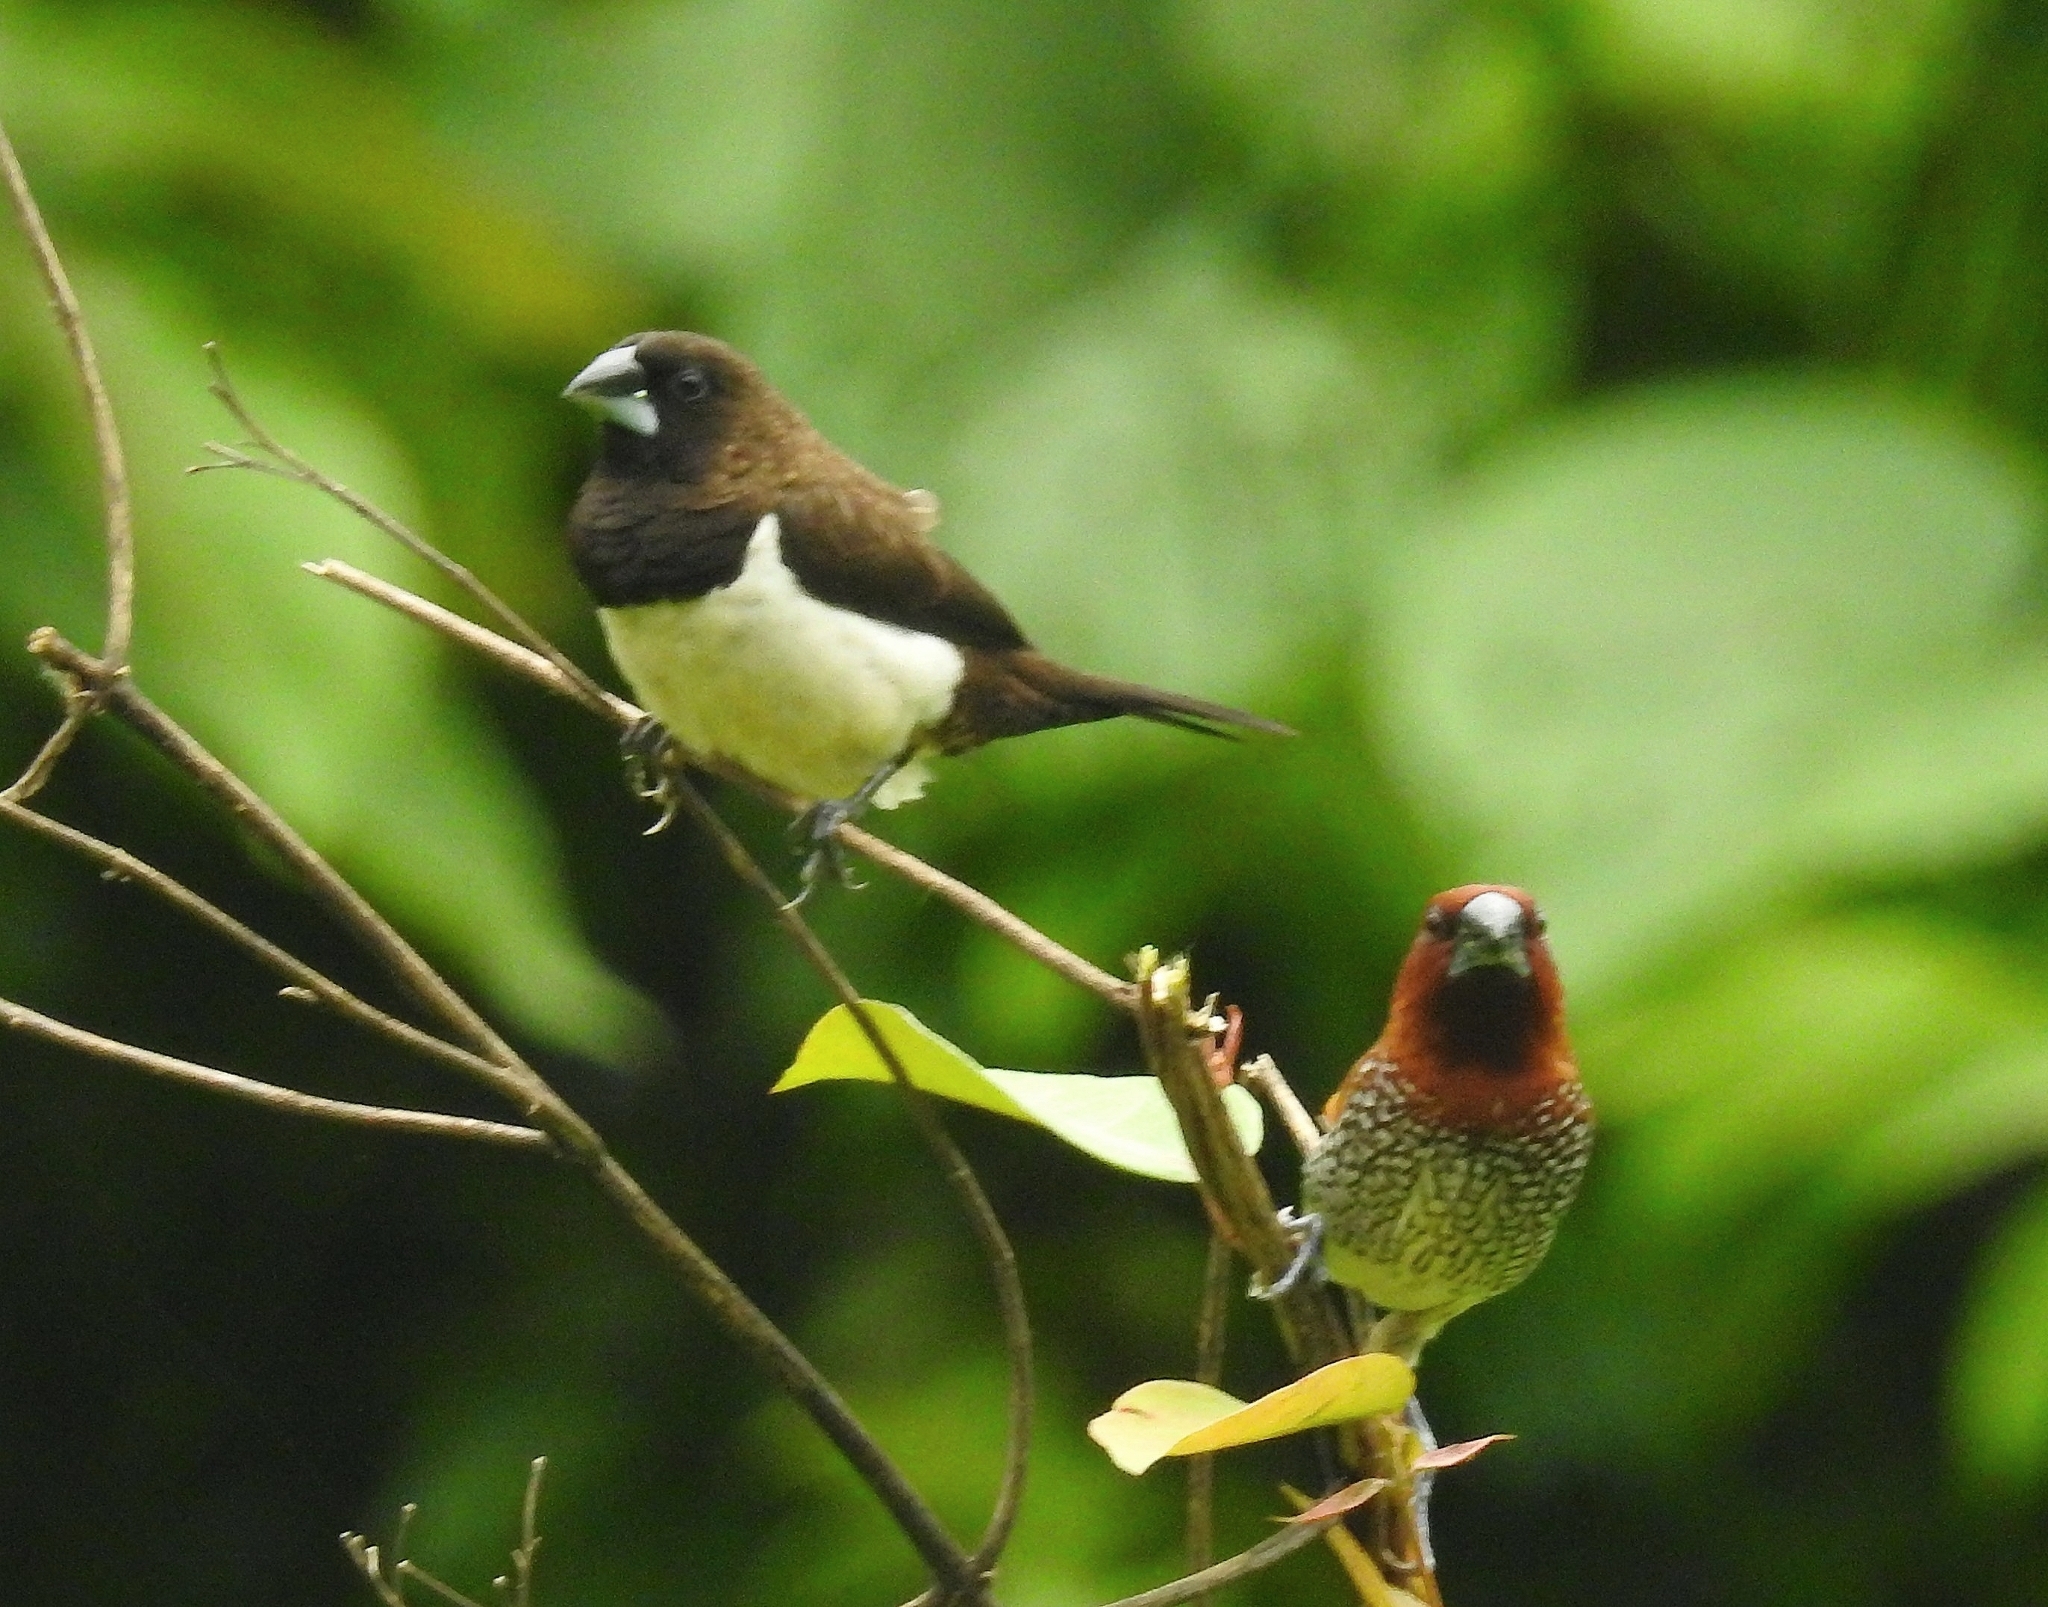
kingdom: Animalia
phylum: Chordata
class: Aves
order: Passeriformes
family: Estrildidae
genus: Lonchura
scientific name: Lonchura striata
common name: White-rumped munia
